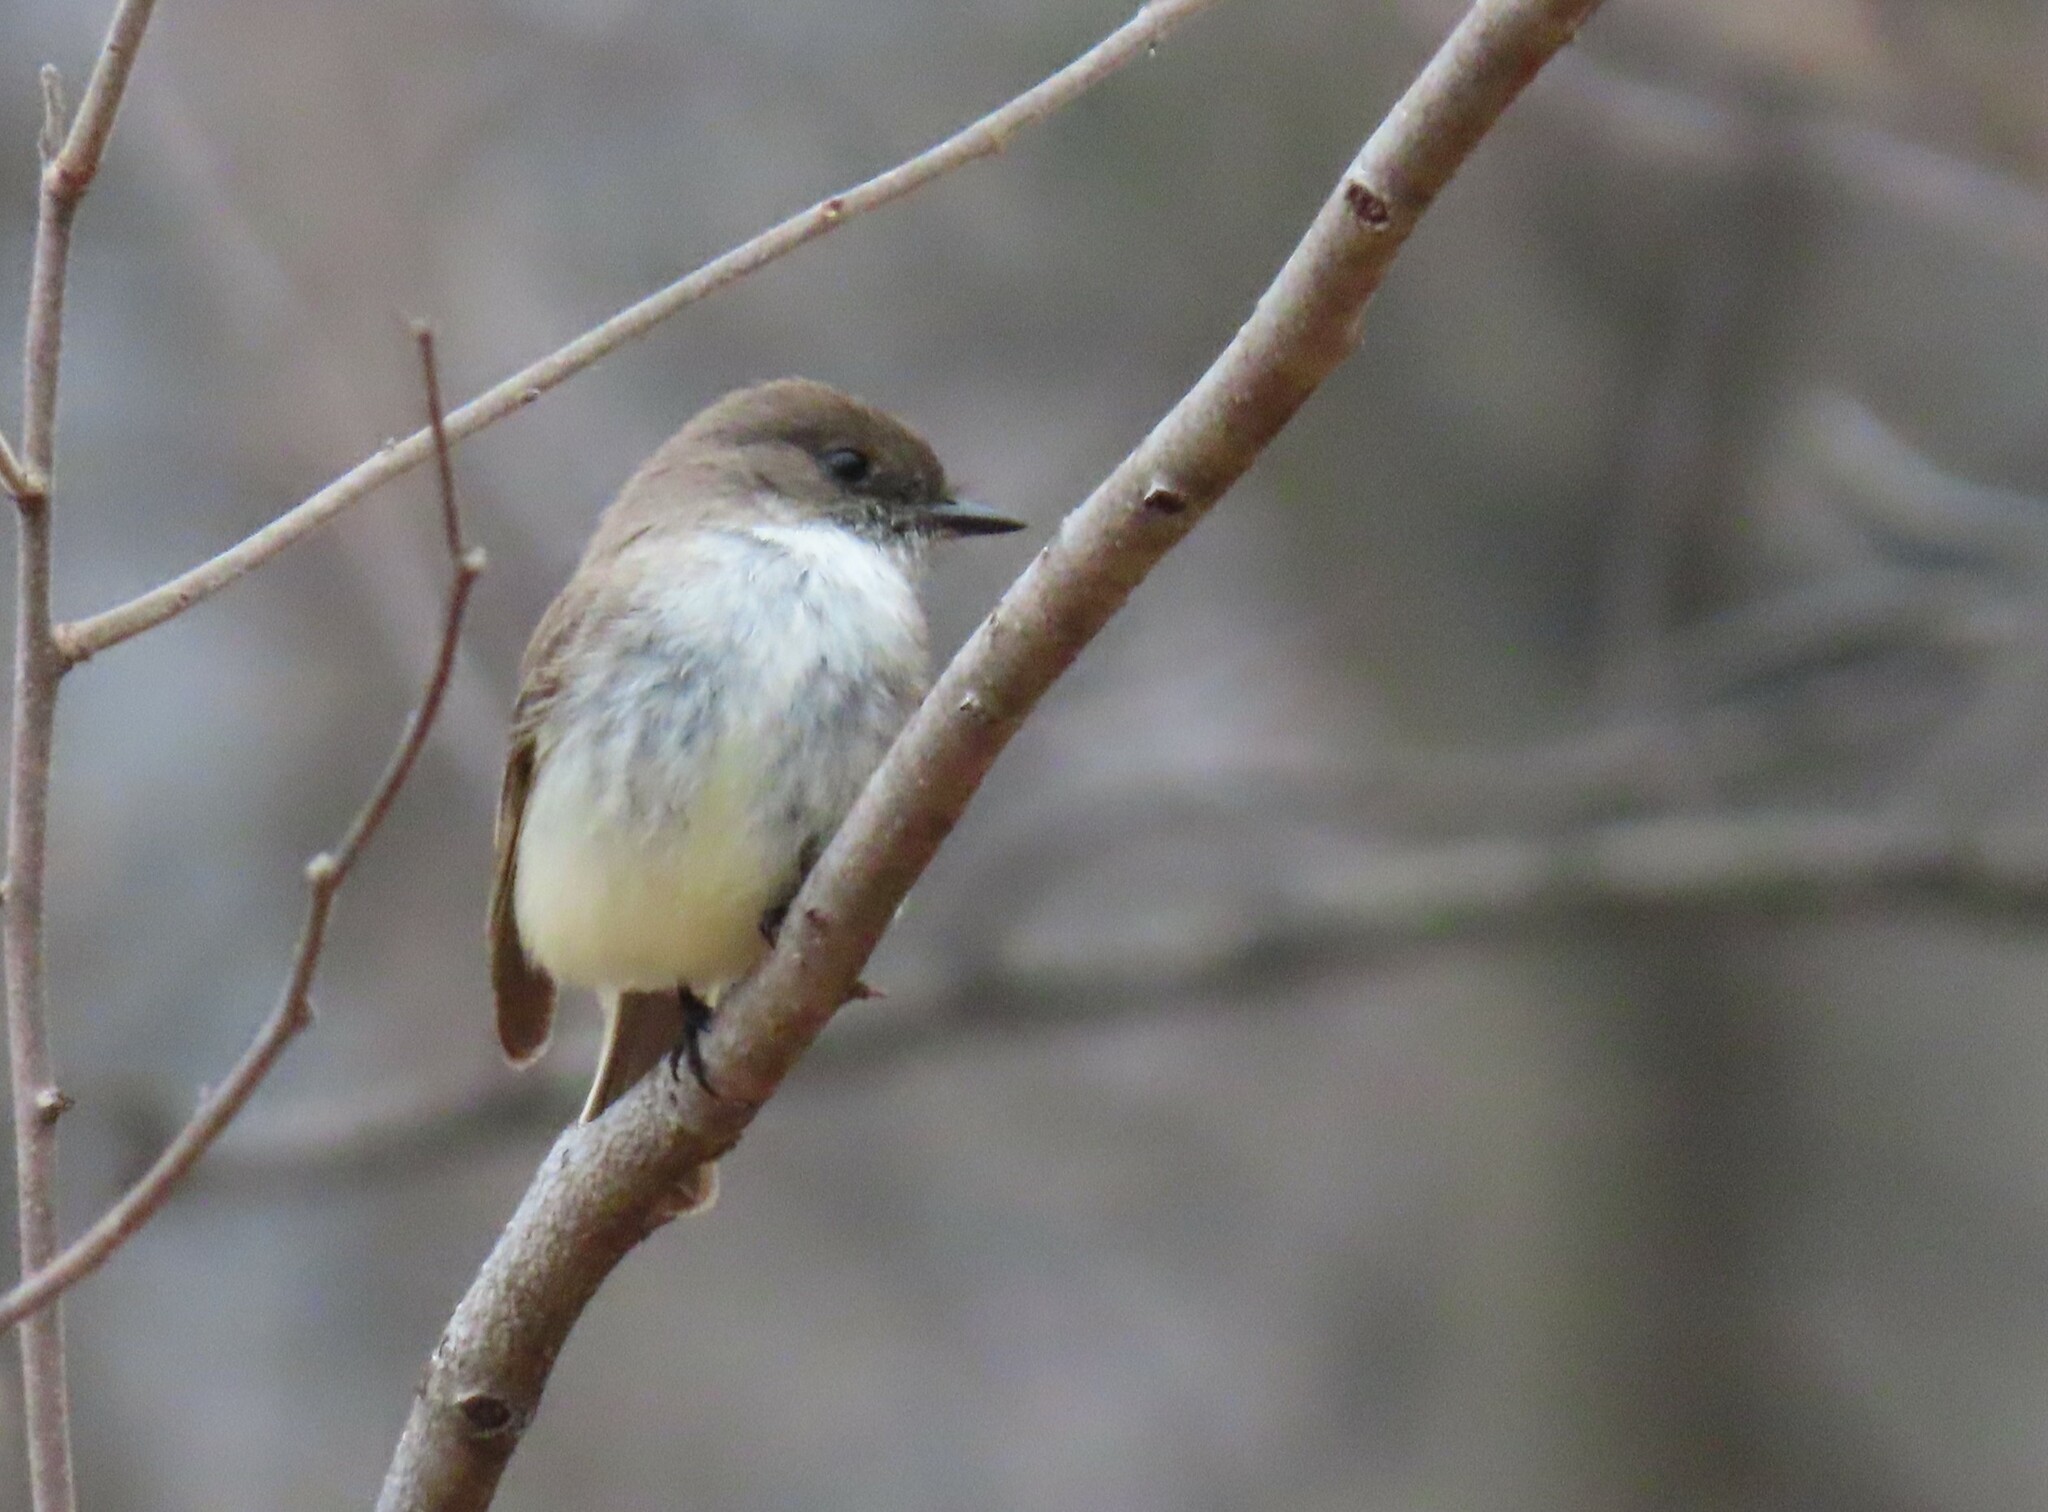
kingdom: Animalia
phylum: Chordata
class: Aves
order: Passeriformes
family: Tyrannidae
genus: Sayornis
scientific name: Sayornis phoebe
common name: Eastern phoebe
